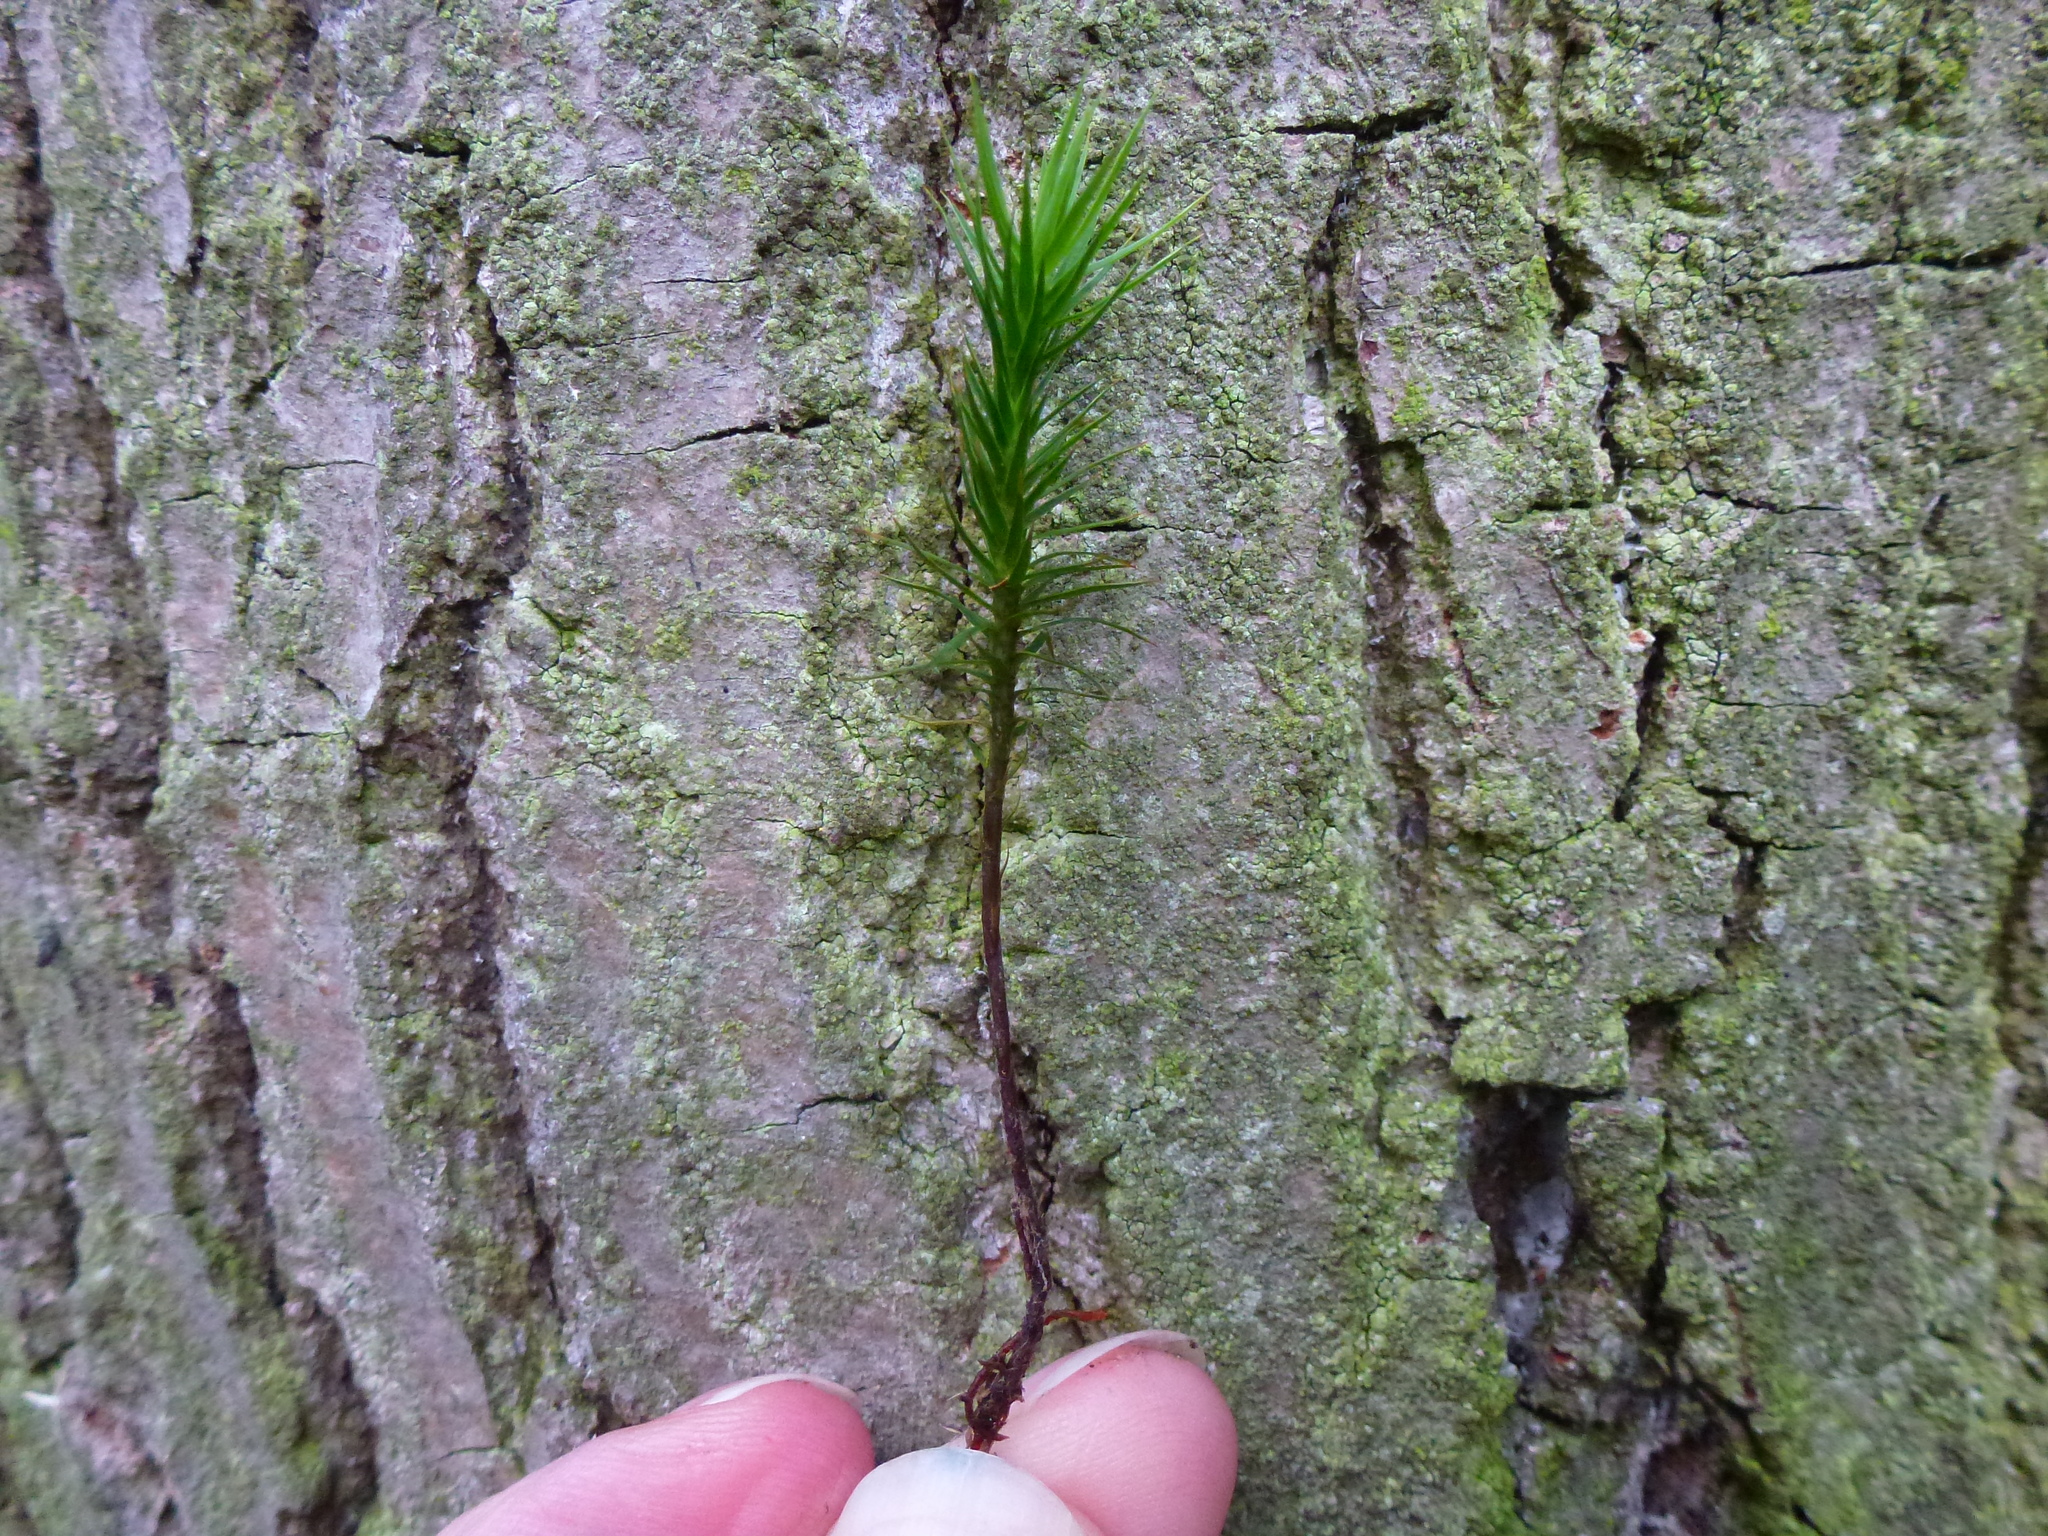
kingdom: Plantae
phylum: Bryophyta
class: Polytrichopsida
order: Polytrichales
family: Polytrichaceae
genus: Polytrichum
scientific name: Polytrichum formosum
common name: Bank haircap moss
